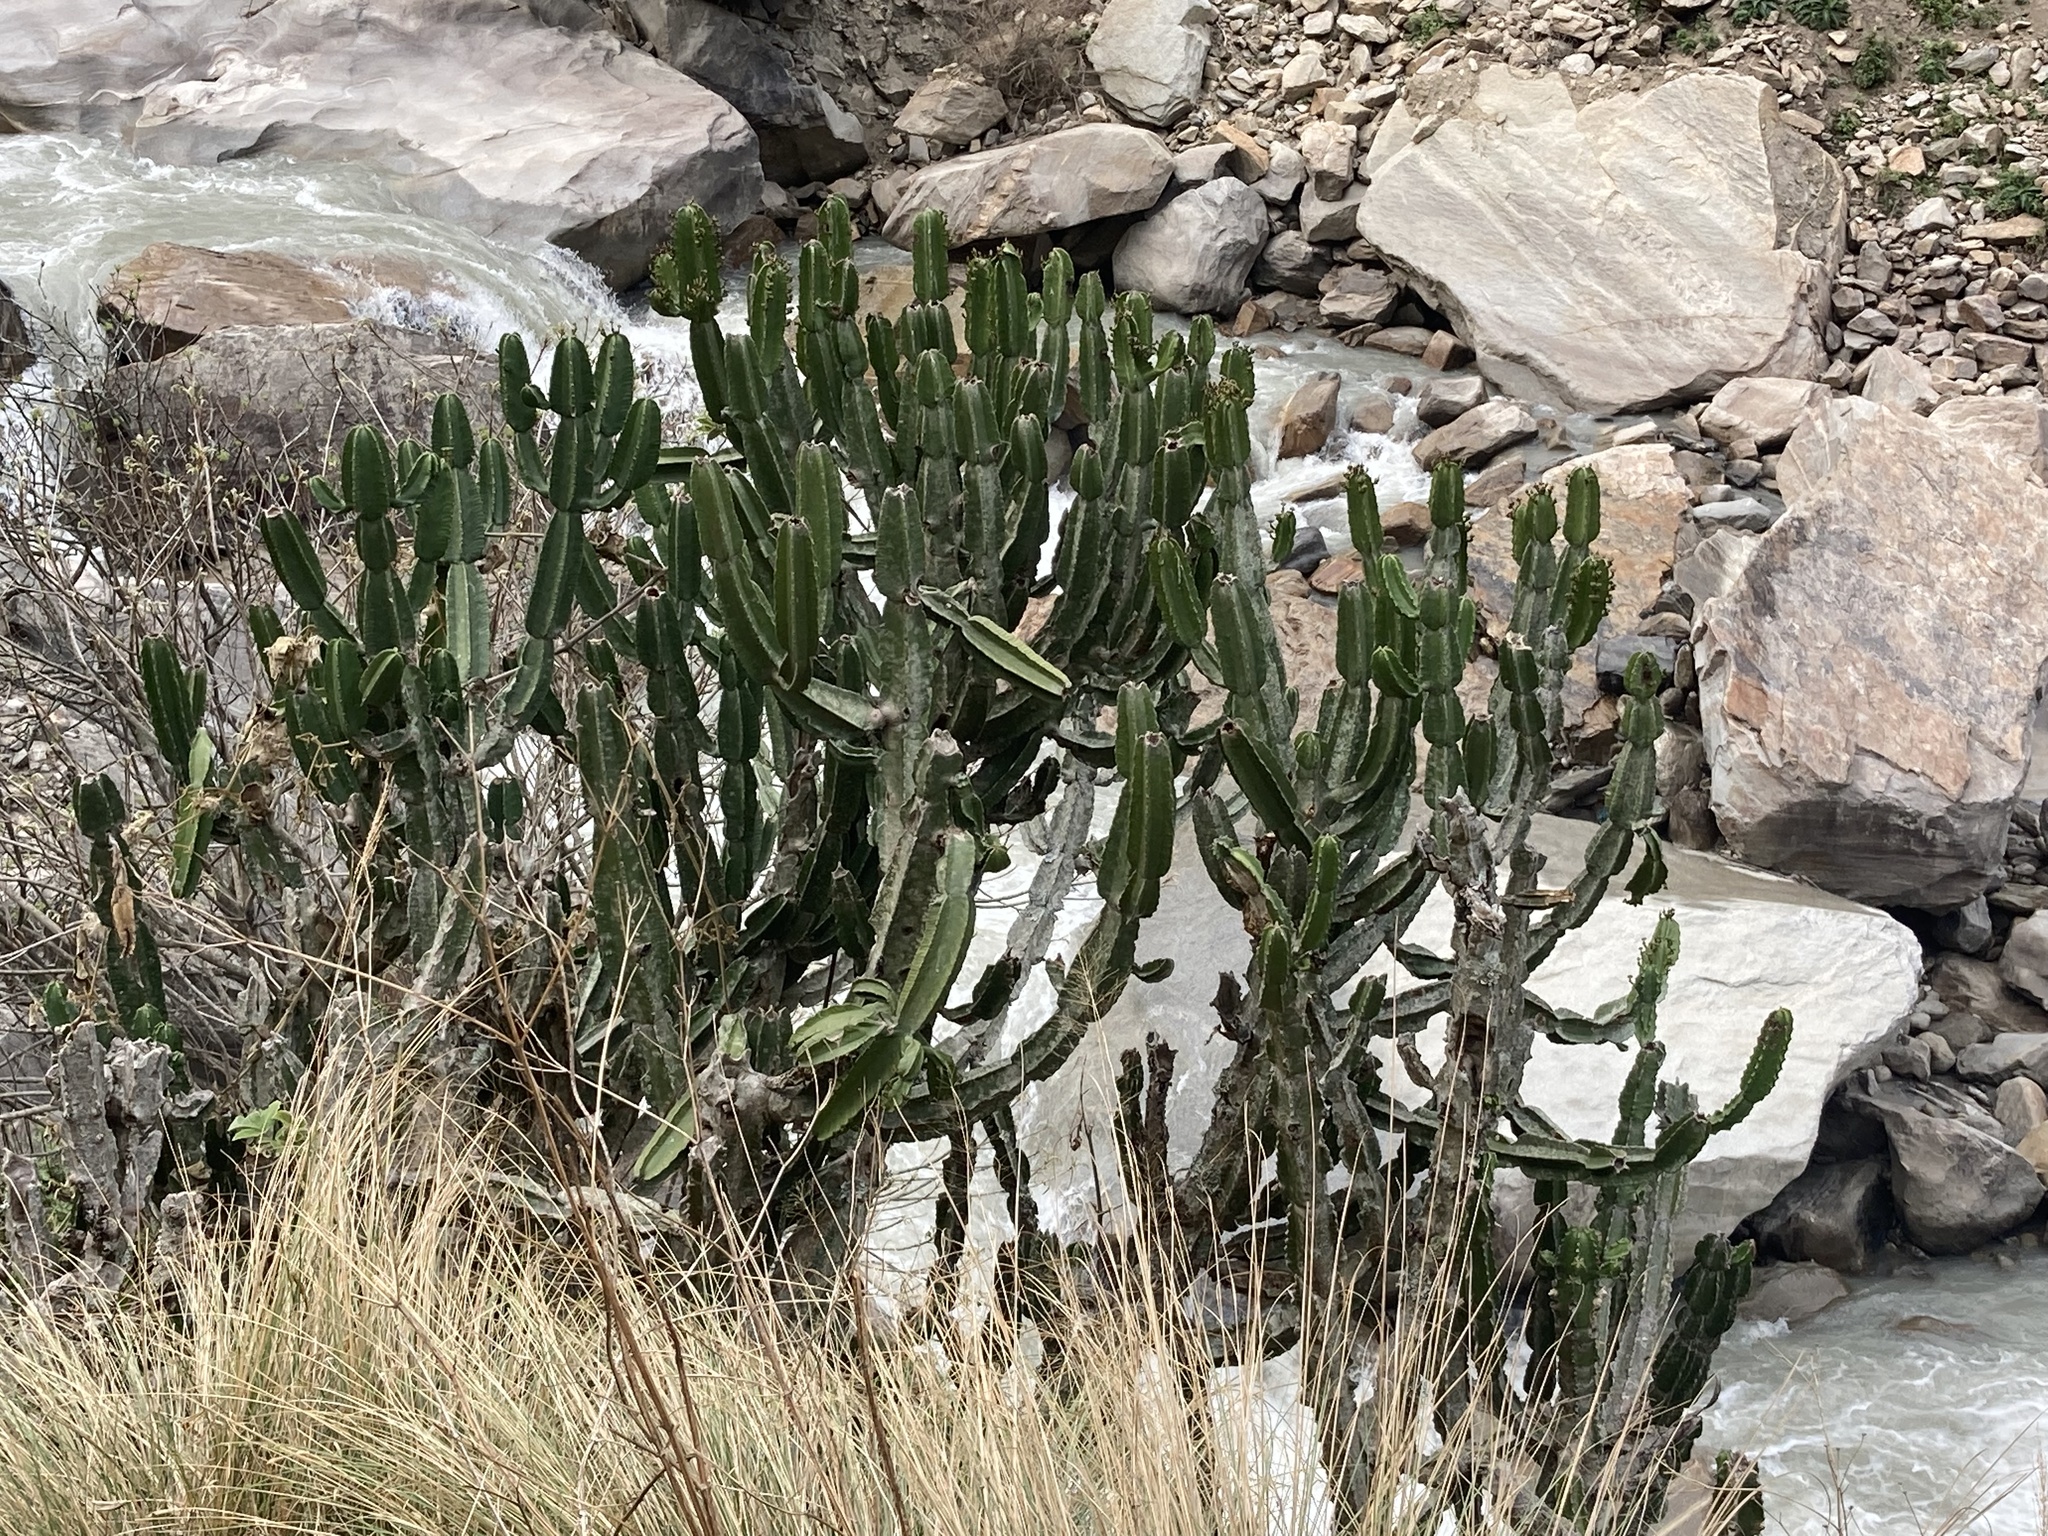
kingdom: Plantae
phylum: Tracheophyta
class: Magnoliopsida
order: Malpighiales
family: Euphorbiaceae
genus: Euphorbia
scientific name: Euphorbia royleana
